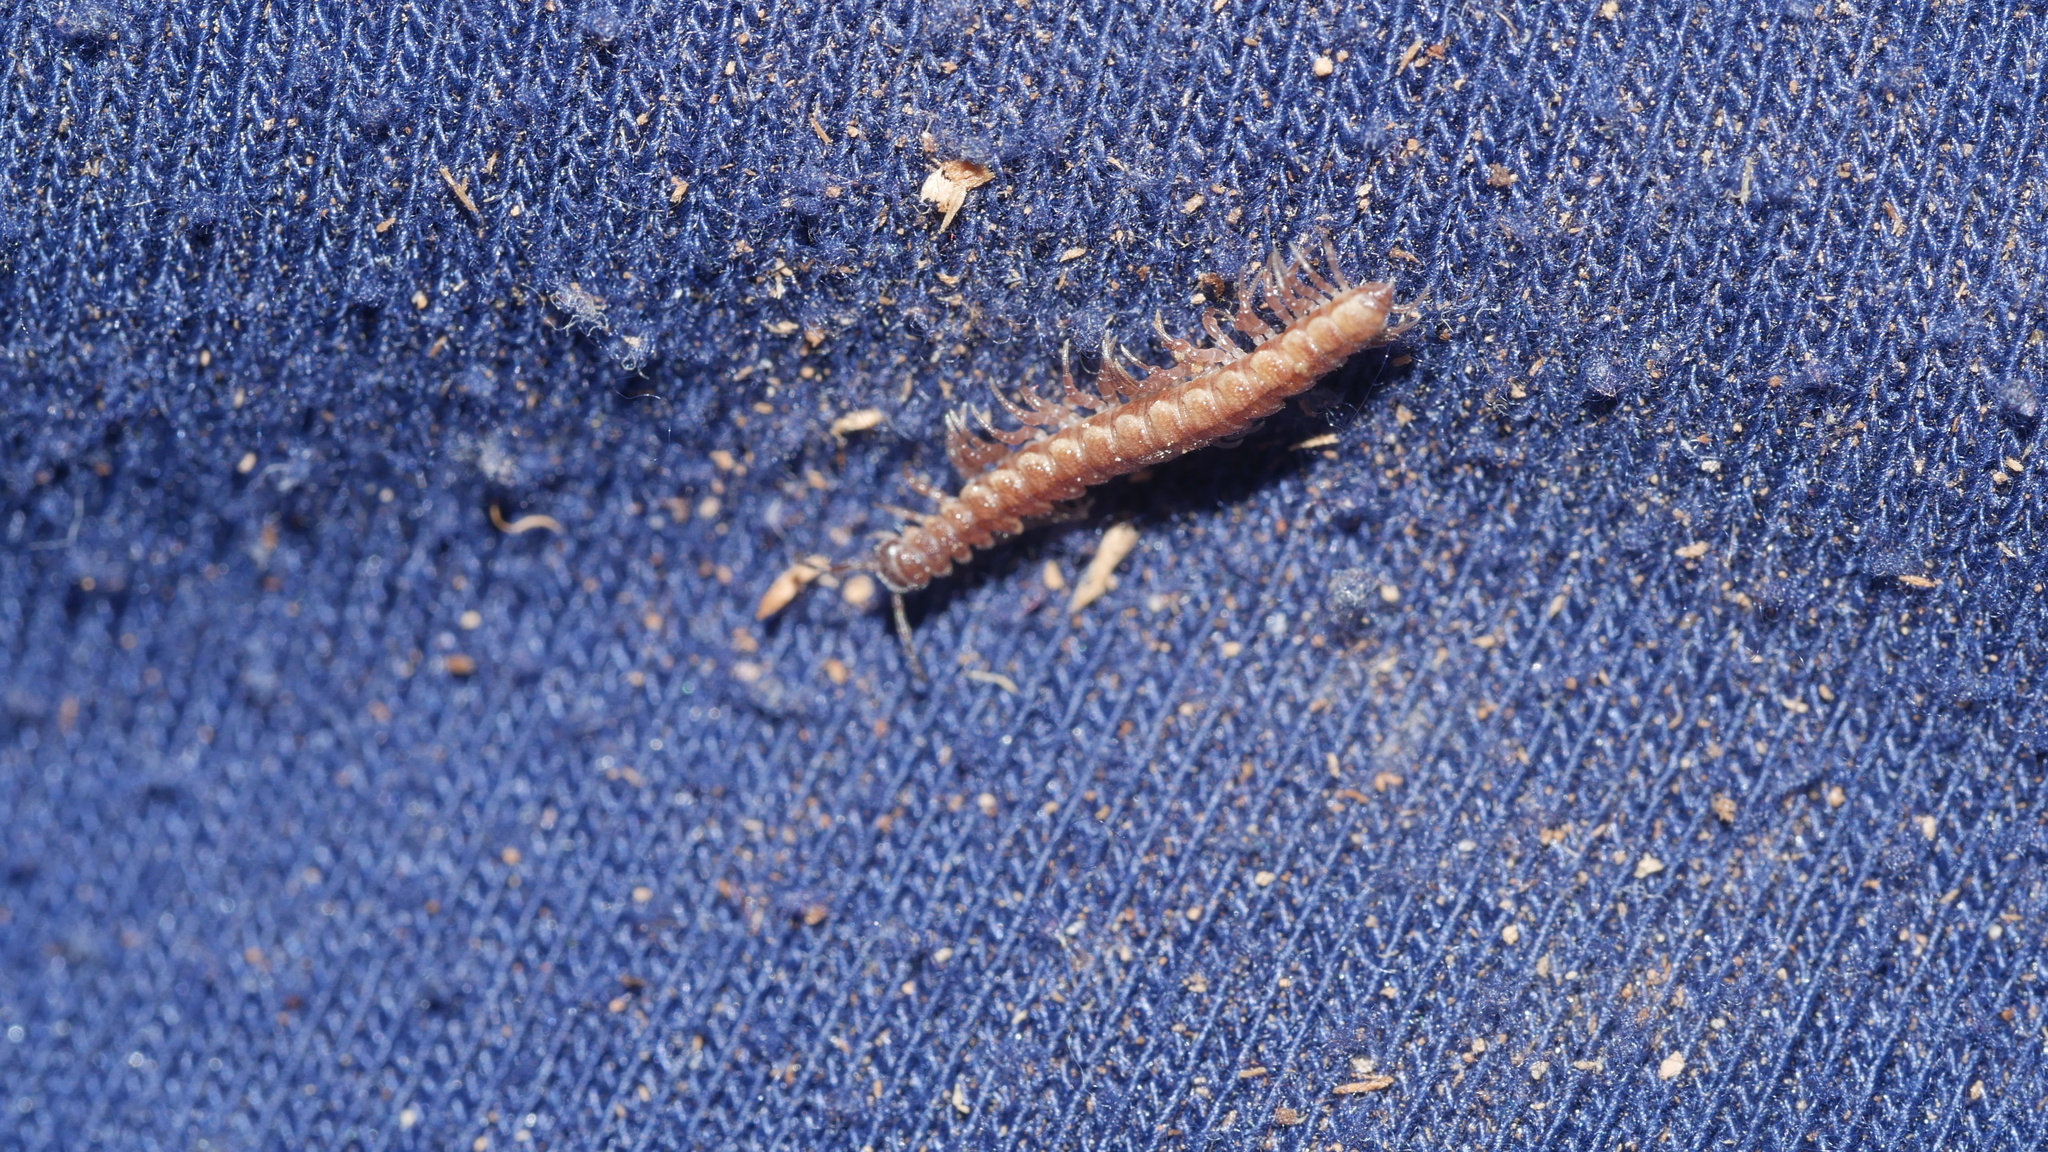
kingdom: Animalia
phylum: Arthropoda
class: Diplopoda
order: Polydesmida
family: Polydesmidae
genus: Scytonotus
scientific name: Scytonotus granulatus
